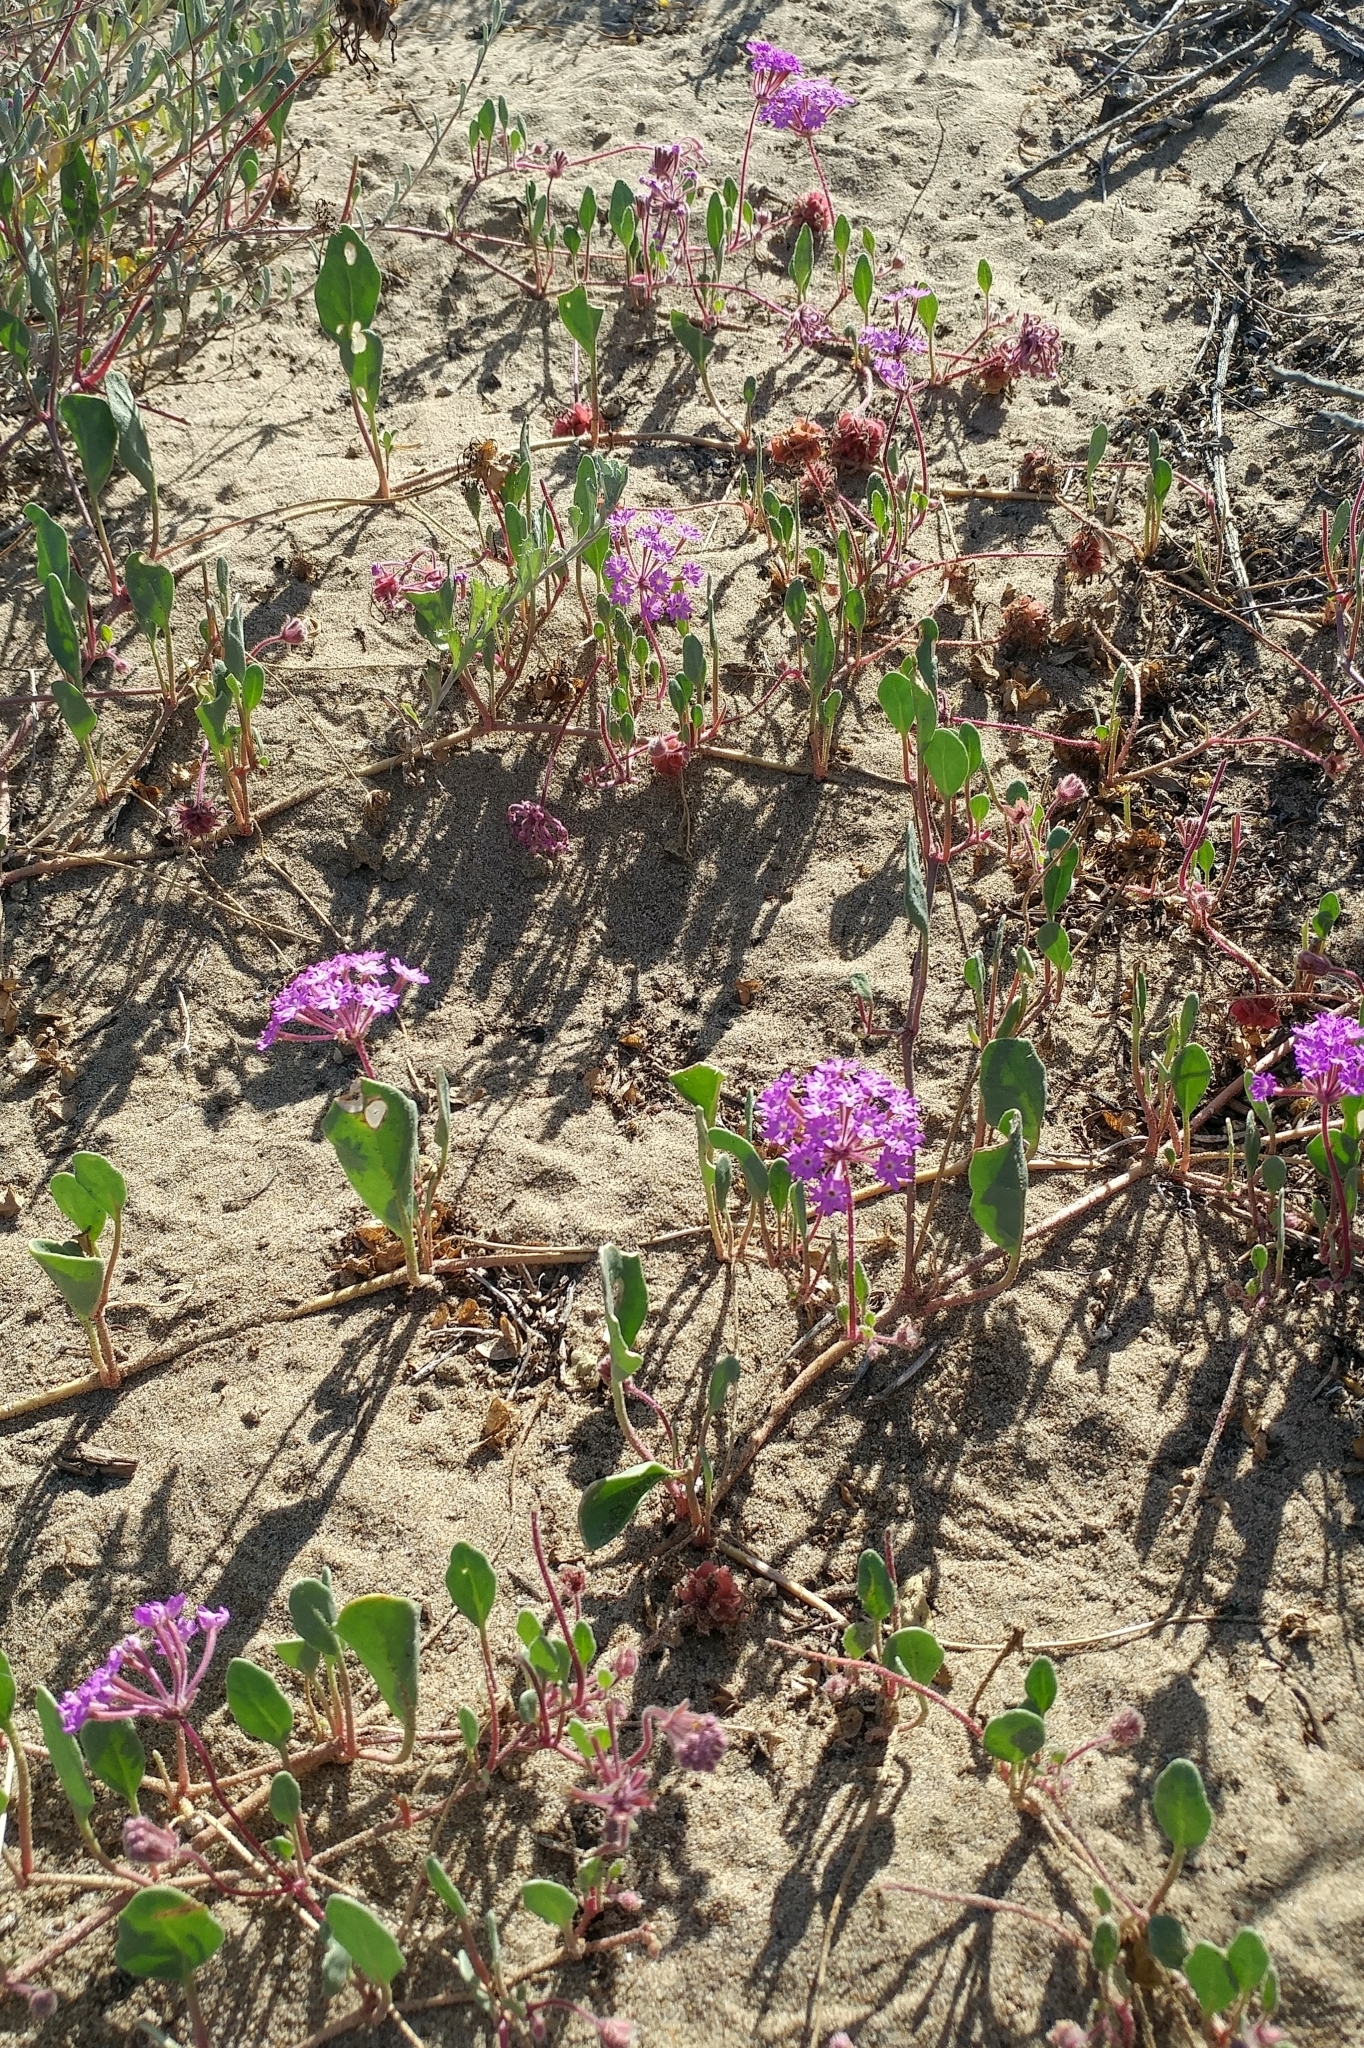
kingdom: Plantae
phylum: Tracheophyta
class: Magnoliopsida
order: Caryophyllales
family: Nyctaginaceae
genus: Abronia
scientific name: Abronia umbellata
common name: Sand-verbena
